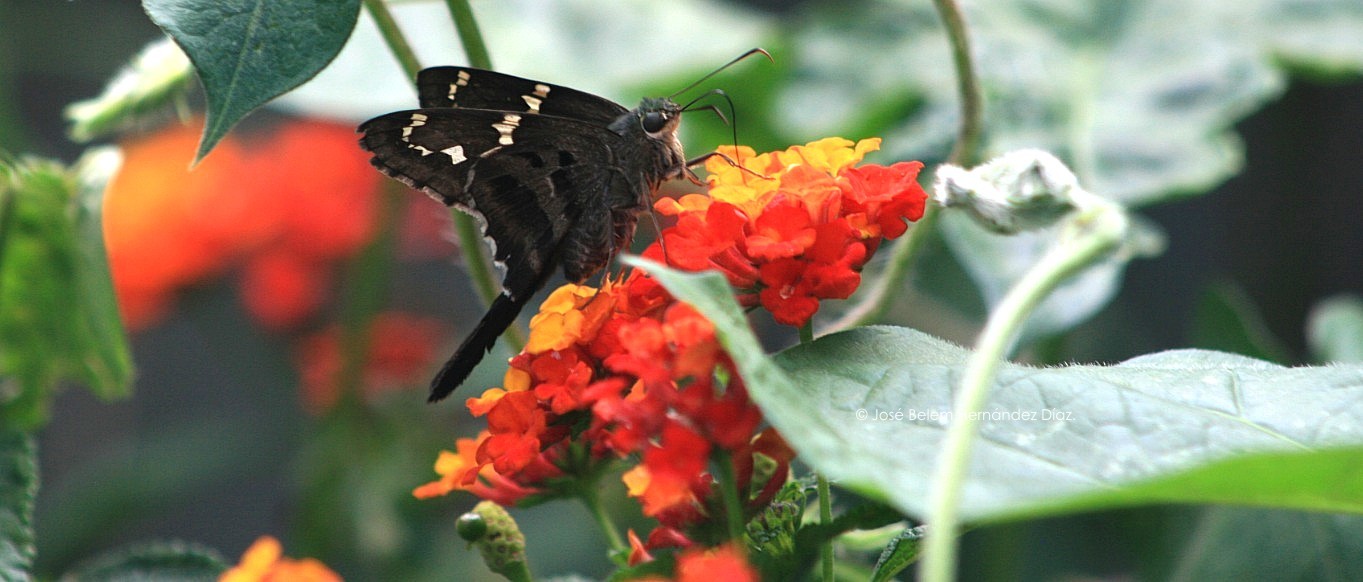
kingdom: Animalia
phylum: Arthropoda
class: Insecta
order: Lepidoptera
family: Hesperiidae
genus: Urbanus
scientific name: Urbanus proteus
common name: Long-tailed skipper
